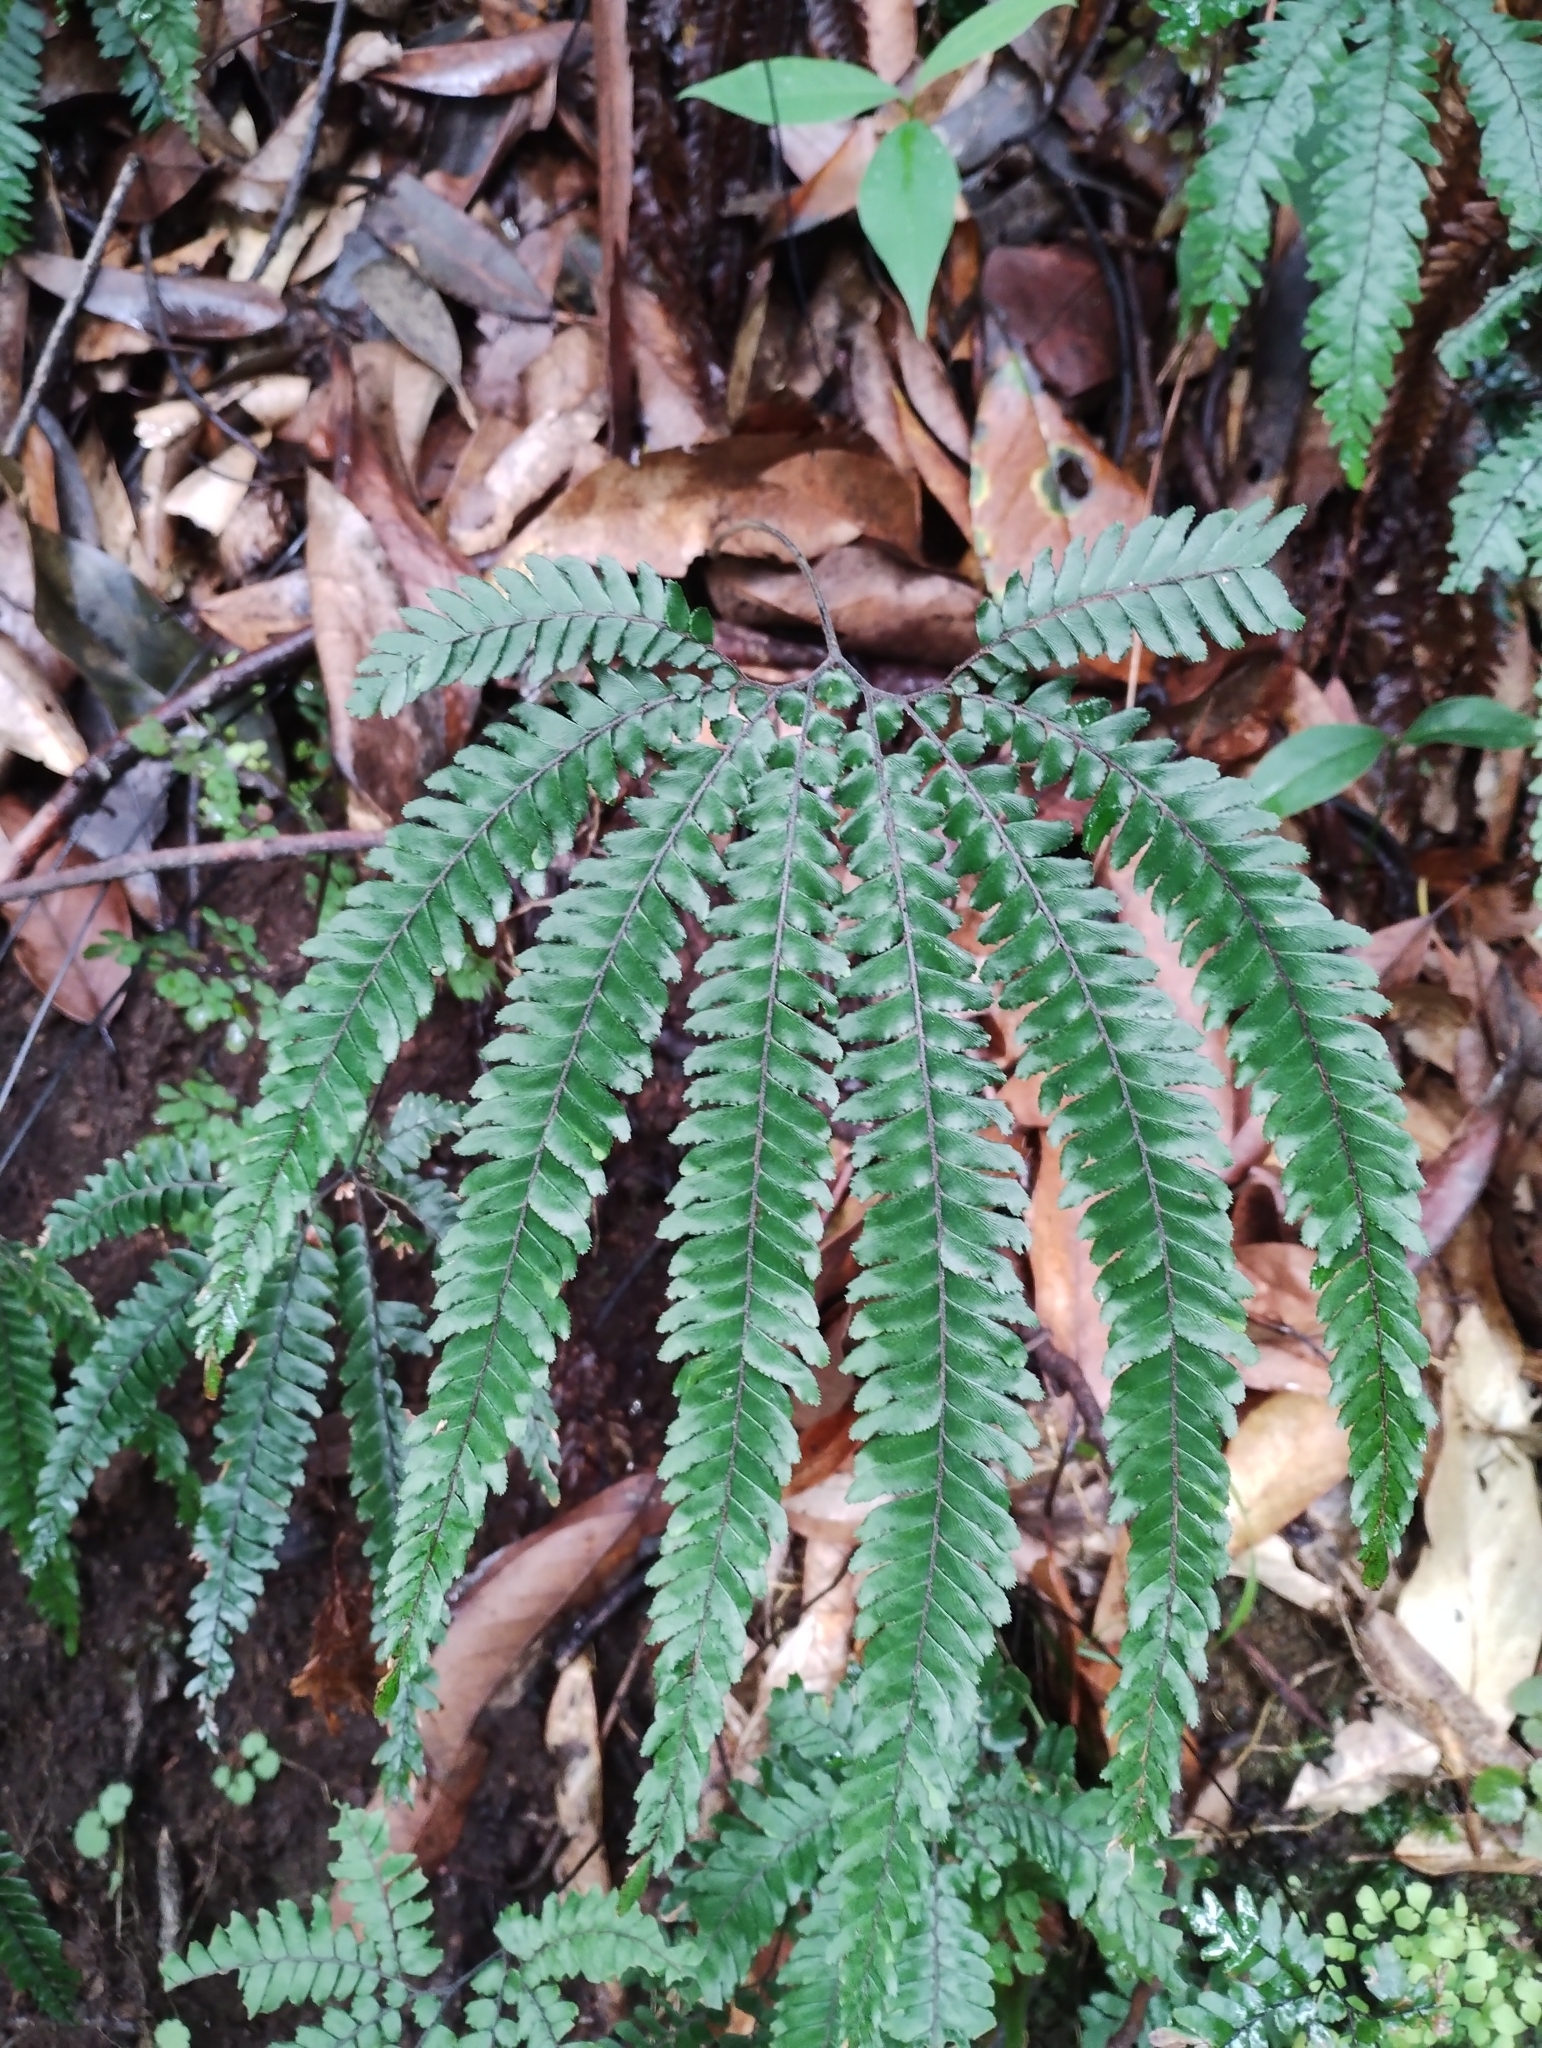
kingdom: Plantae
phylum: Tracheophyta
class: Polypodiopsida
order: Polypodiales
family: Pteridaceae
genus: Adiantum
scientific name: Adiantum hispidulum
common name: Rough maidenhair
